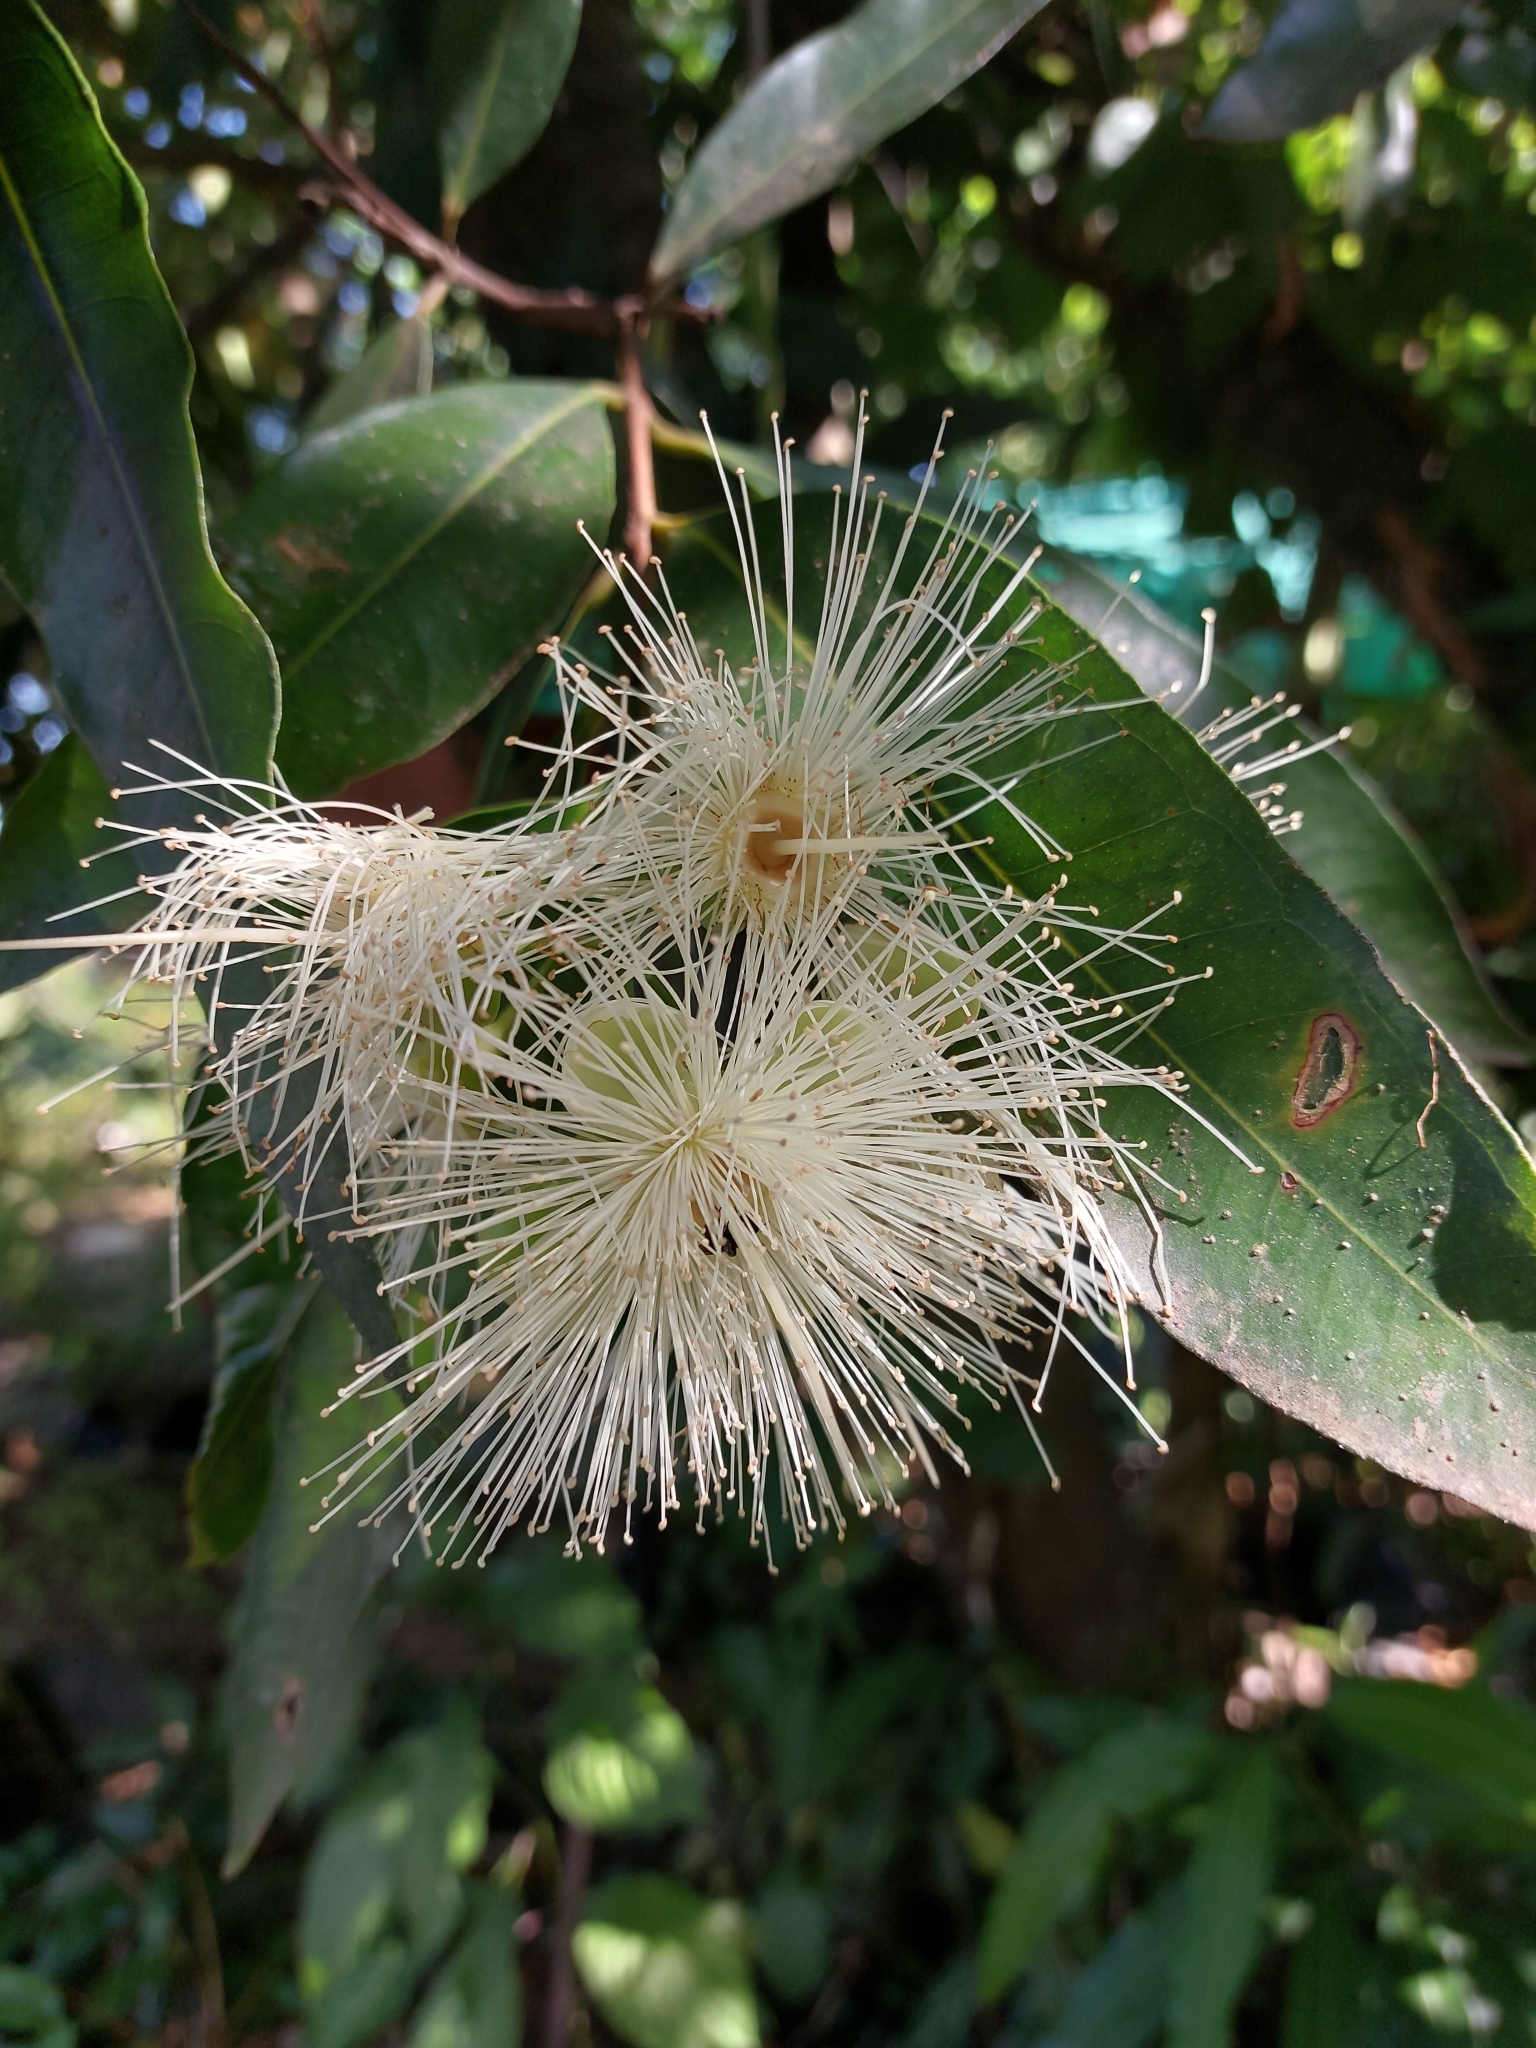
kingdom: Plantae
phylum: Tracheophyta
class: Magnoliopsida
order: Myrtales
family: Myrtaceae
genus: Syzygium
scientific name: Syzygium jambos
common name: Malabar plum
